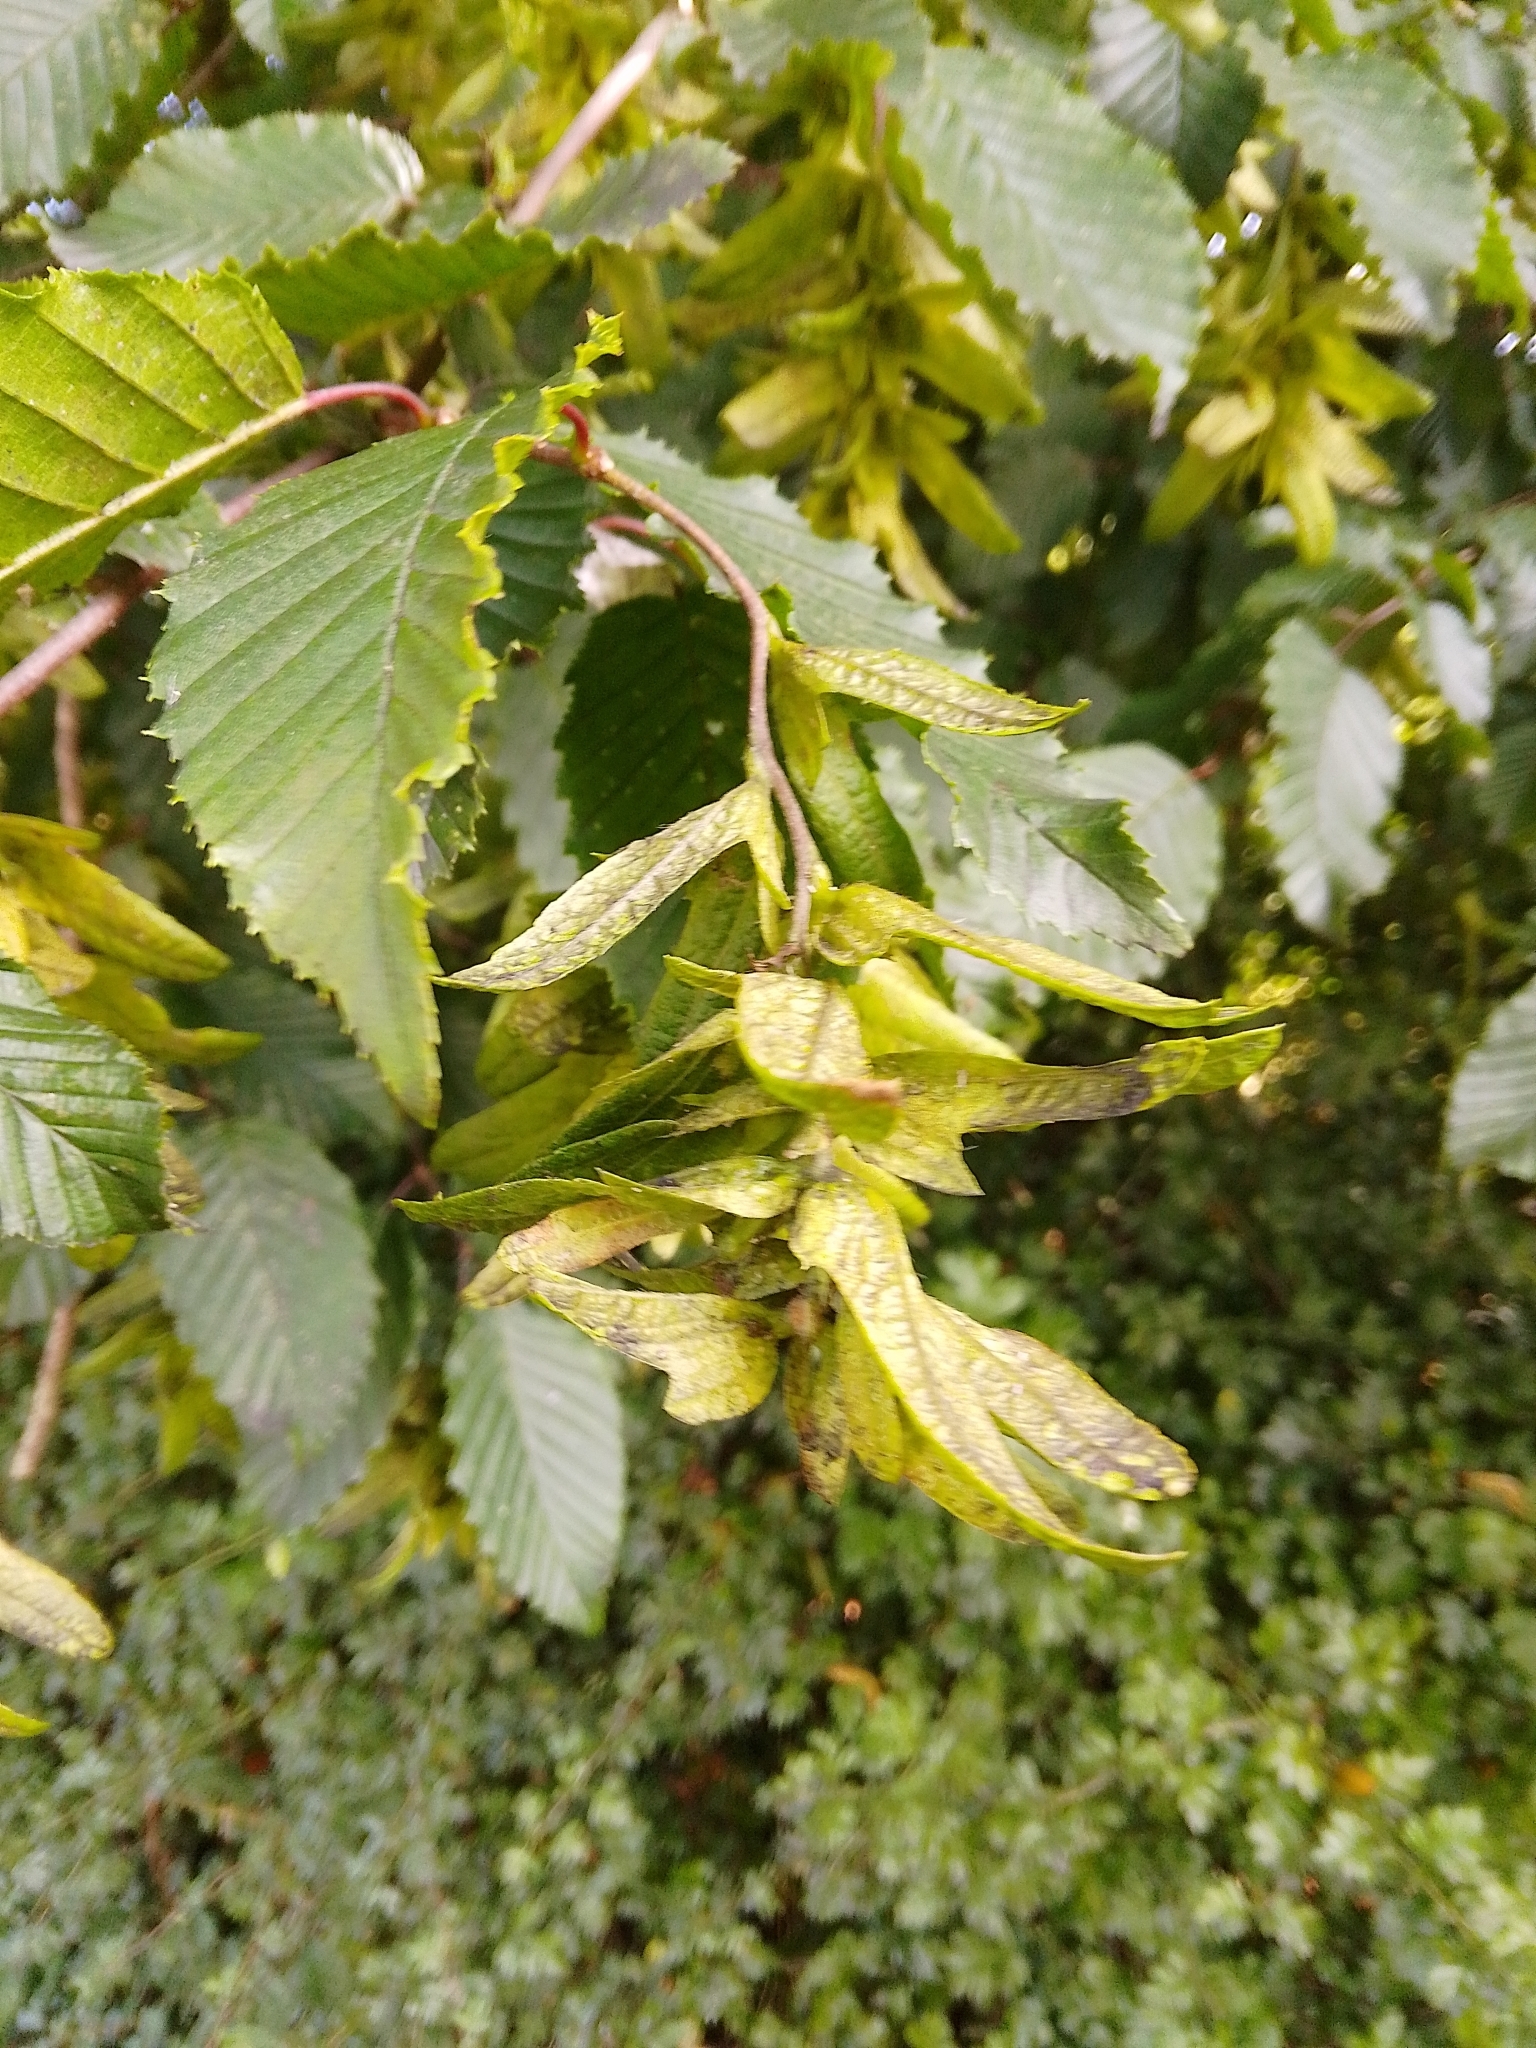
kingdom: Plantae
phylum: Tracheophyta
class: Magnoliopsida
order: Fagales
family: Betulaceae
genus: Carpinus
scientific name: Carpinus betulus
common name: Hornbeam
